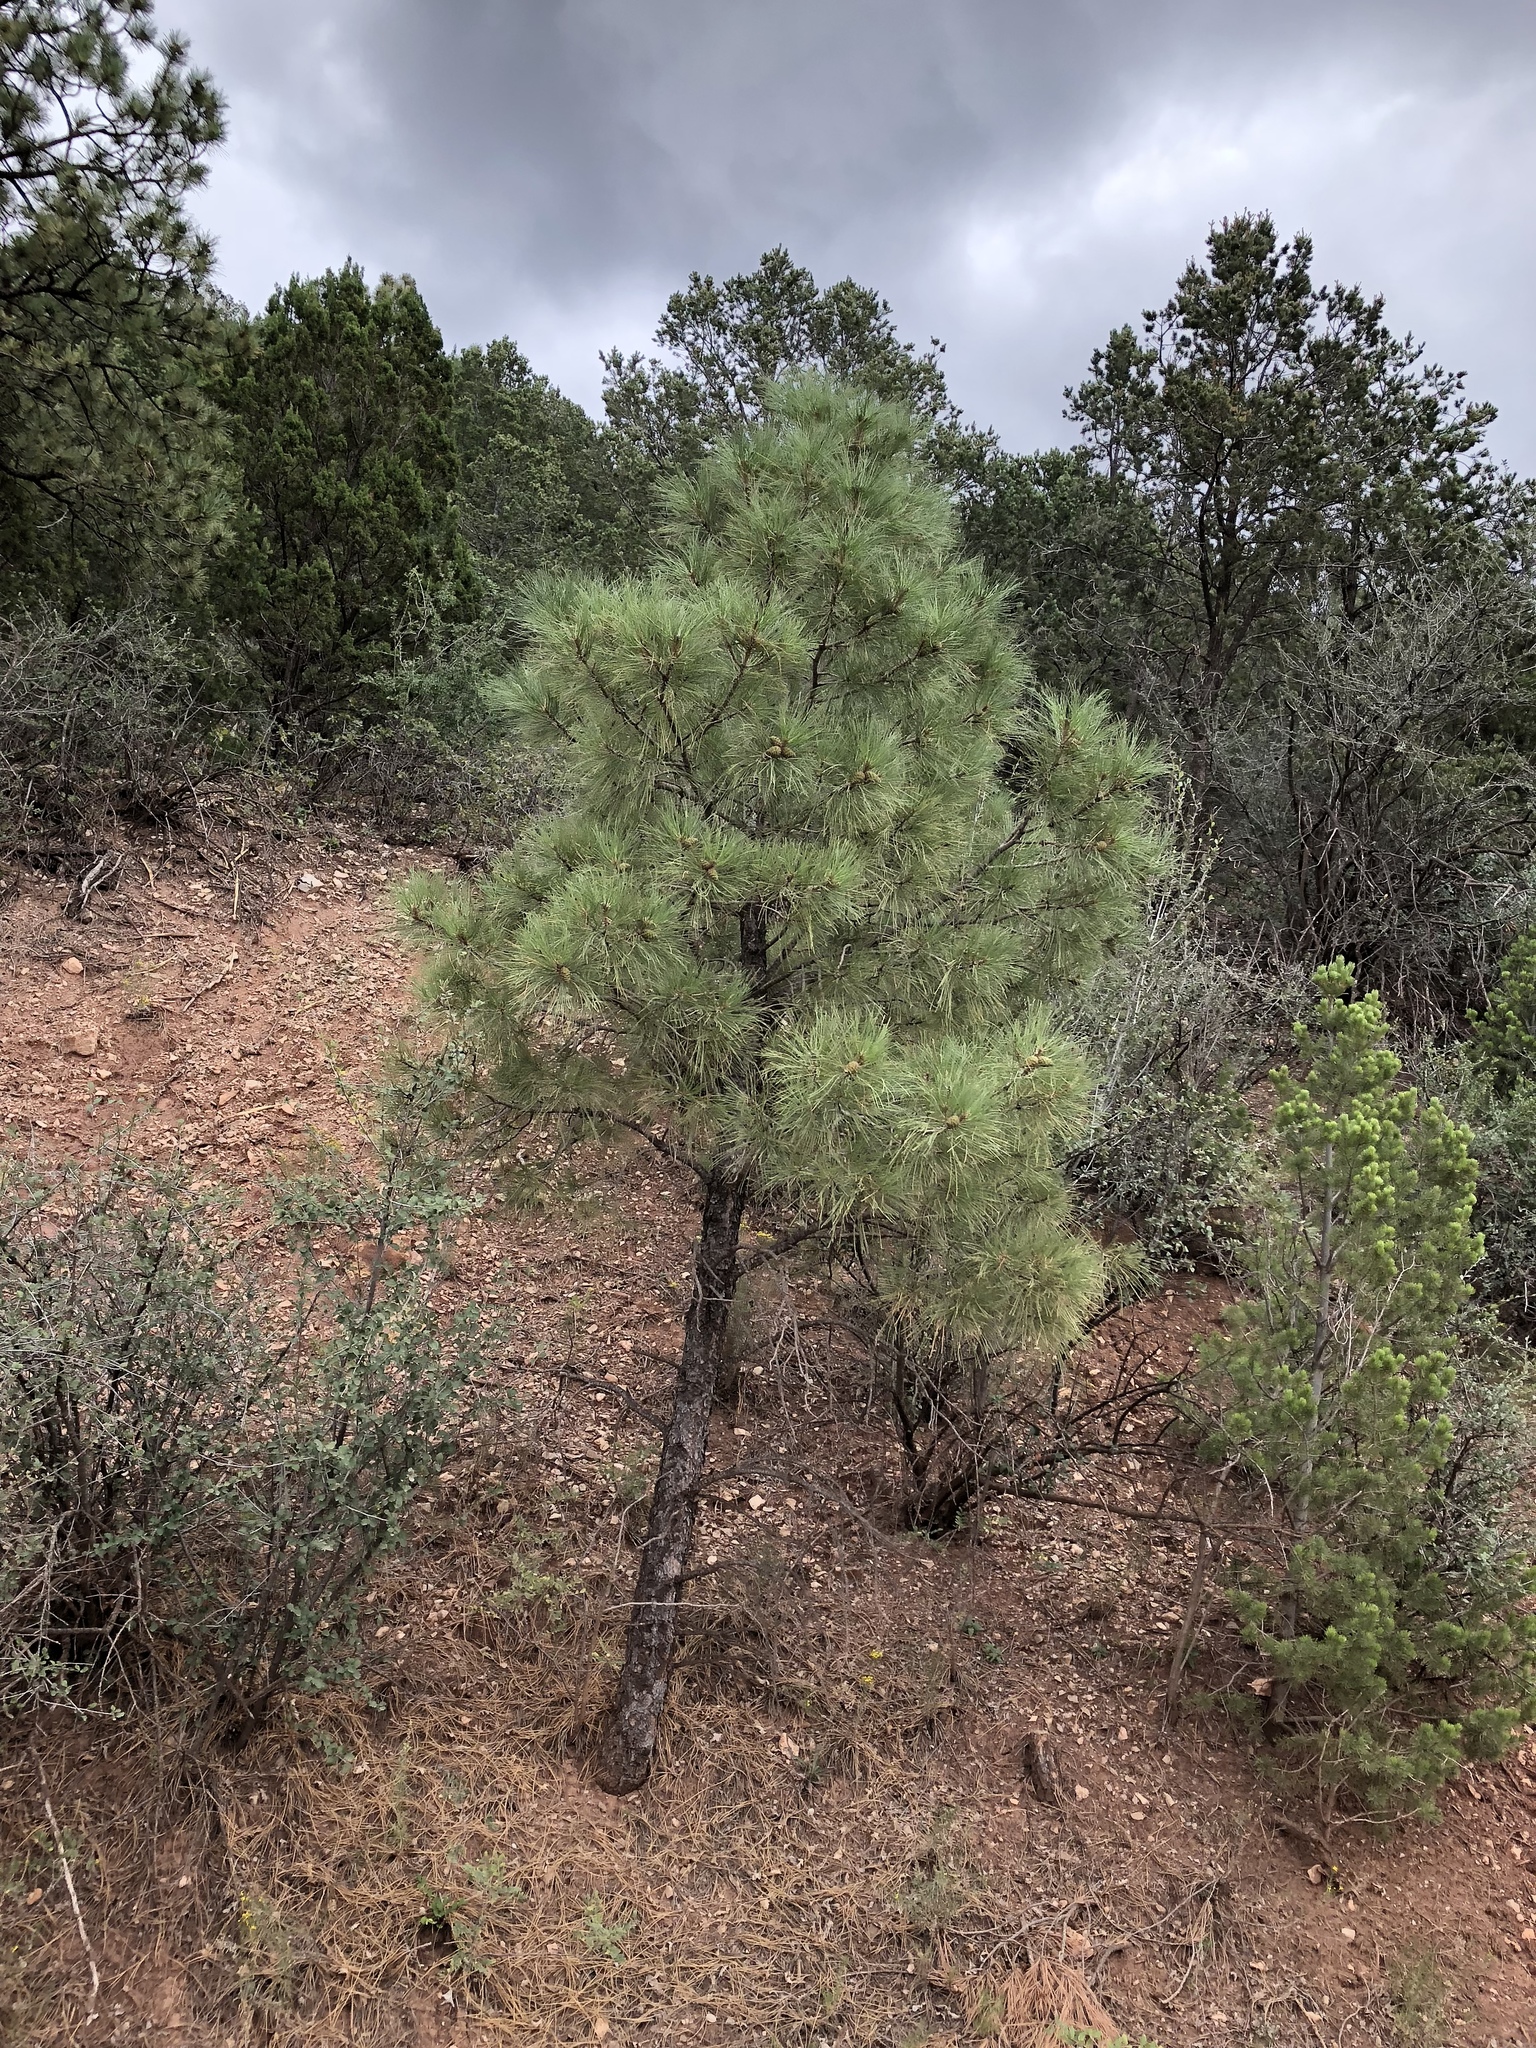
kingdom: Plantae
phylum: Tracheophyta
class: Pinopsida
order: Pinales
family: Pinaceae
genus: Pinus
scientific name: Pinus ponderosa
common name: Western yellow-pine
